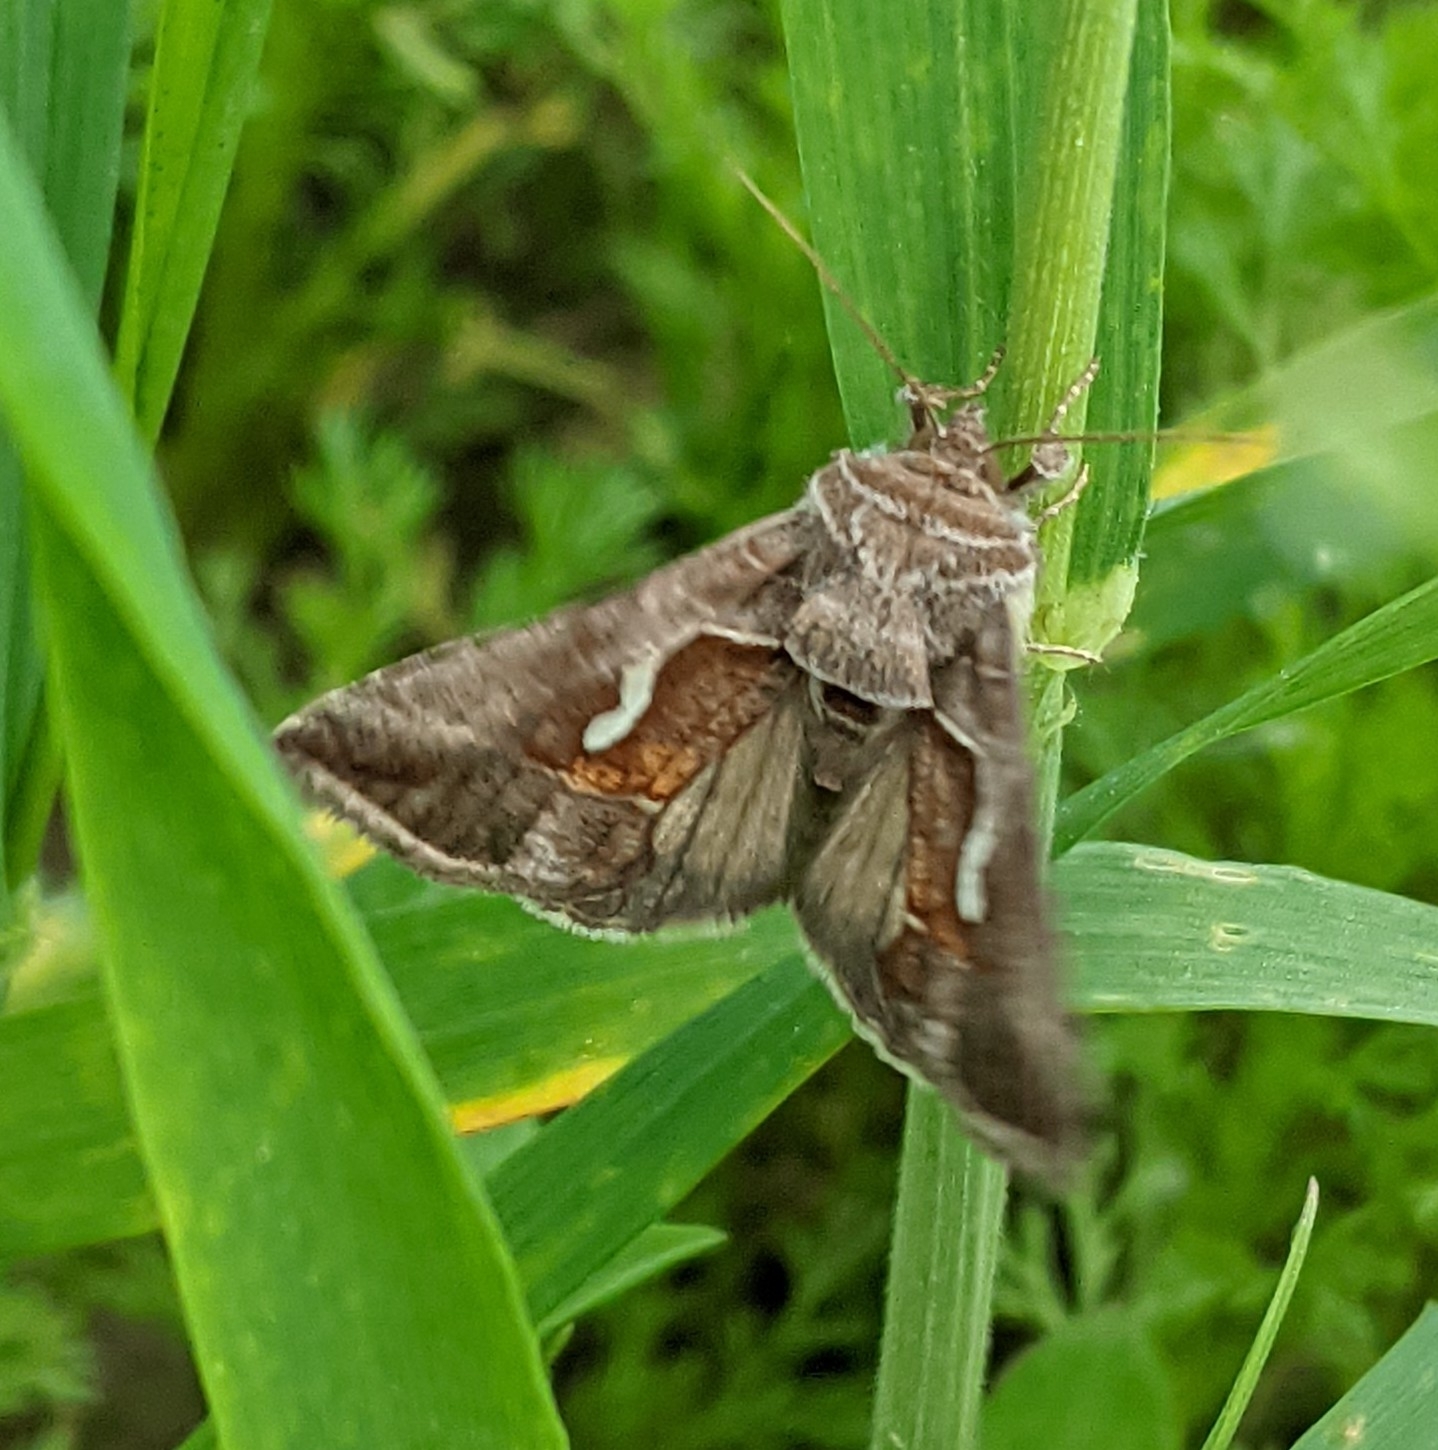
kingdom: Animalia
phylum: Arthropoda
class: Insecta
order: Lepidoptera
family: Noctuidae
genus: Macdunnoughia
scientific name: Macdunnoughia confusa
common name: Dewick's plusia
